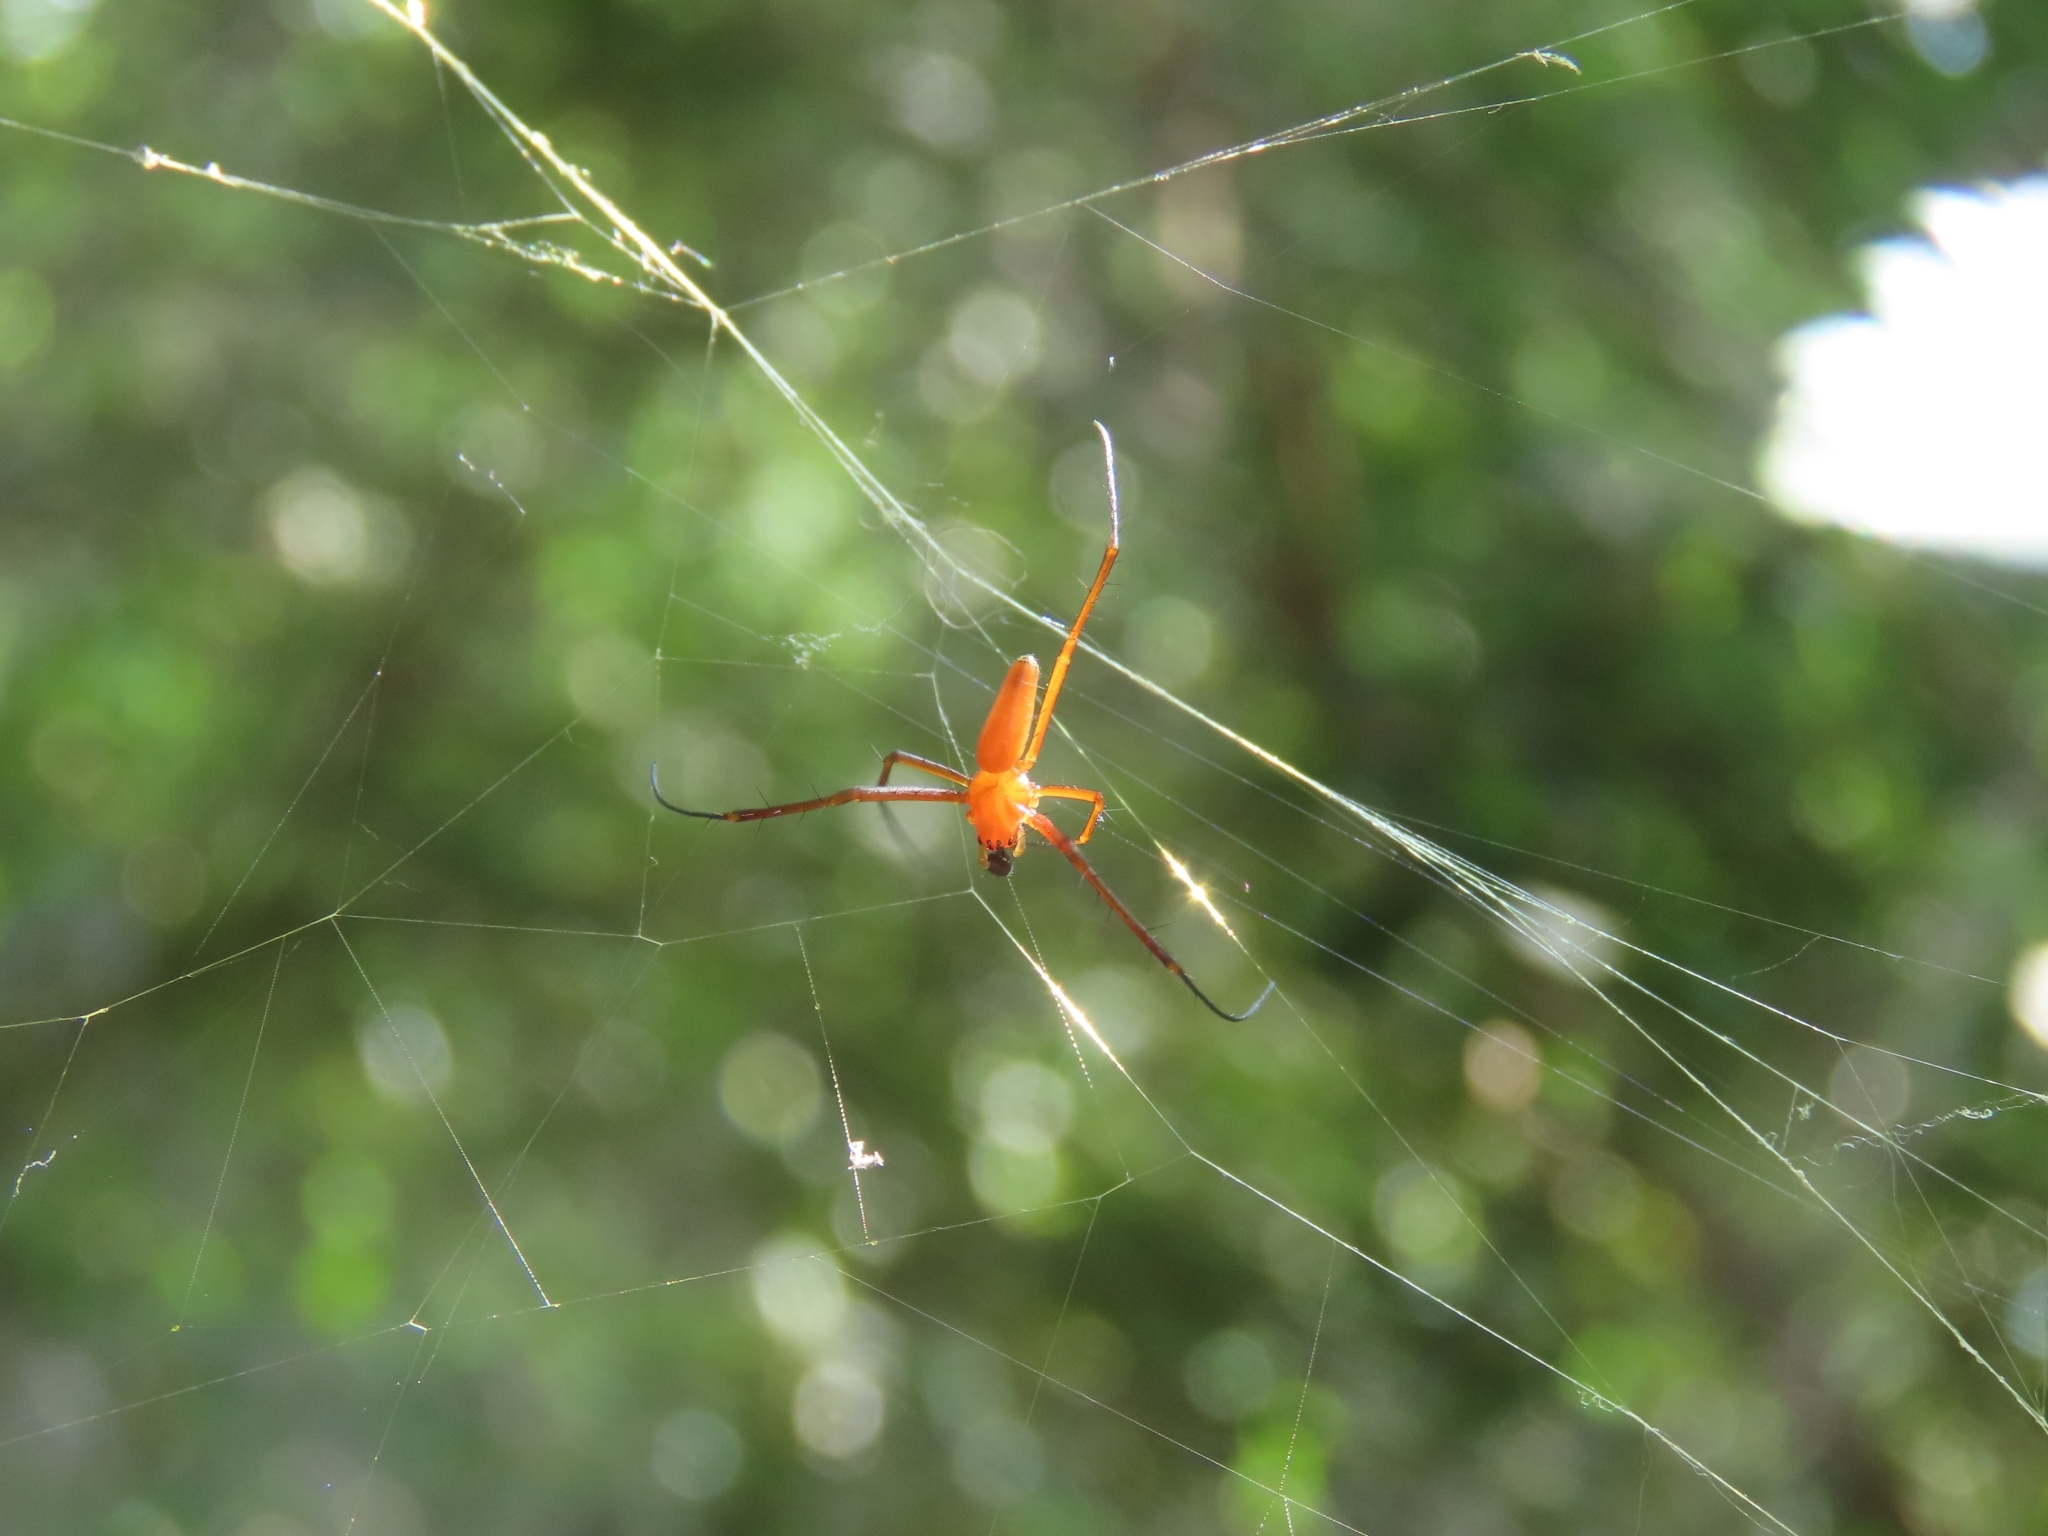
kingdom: Animalia
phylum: Arthropoda
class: Arachnida
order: Araneae
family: Araneidae
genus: Nephila
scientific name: Nephila pilipes
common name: Giant golden orb weaver
